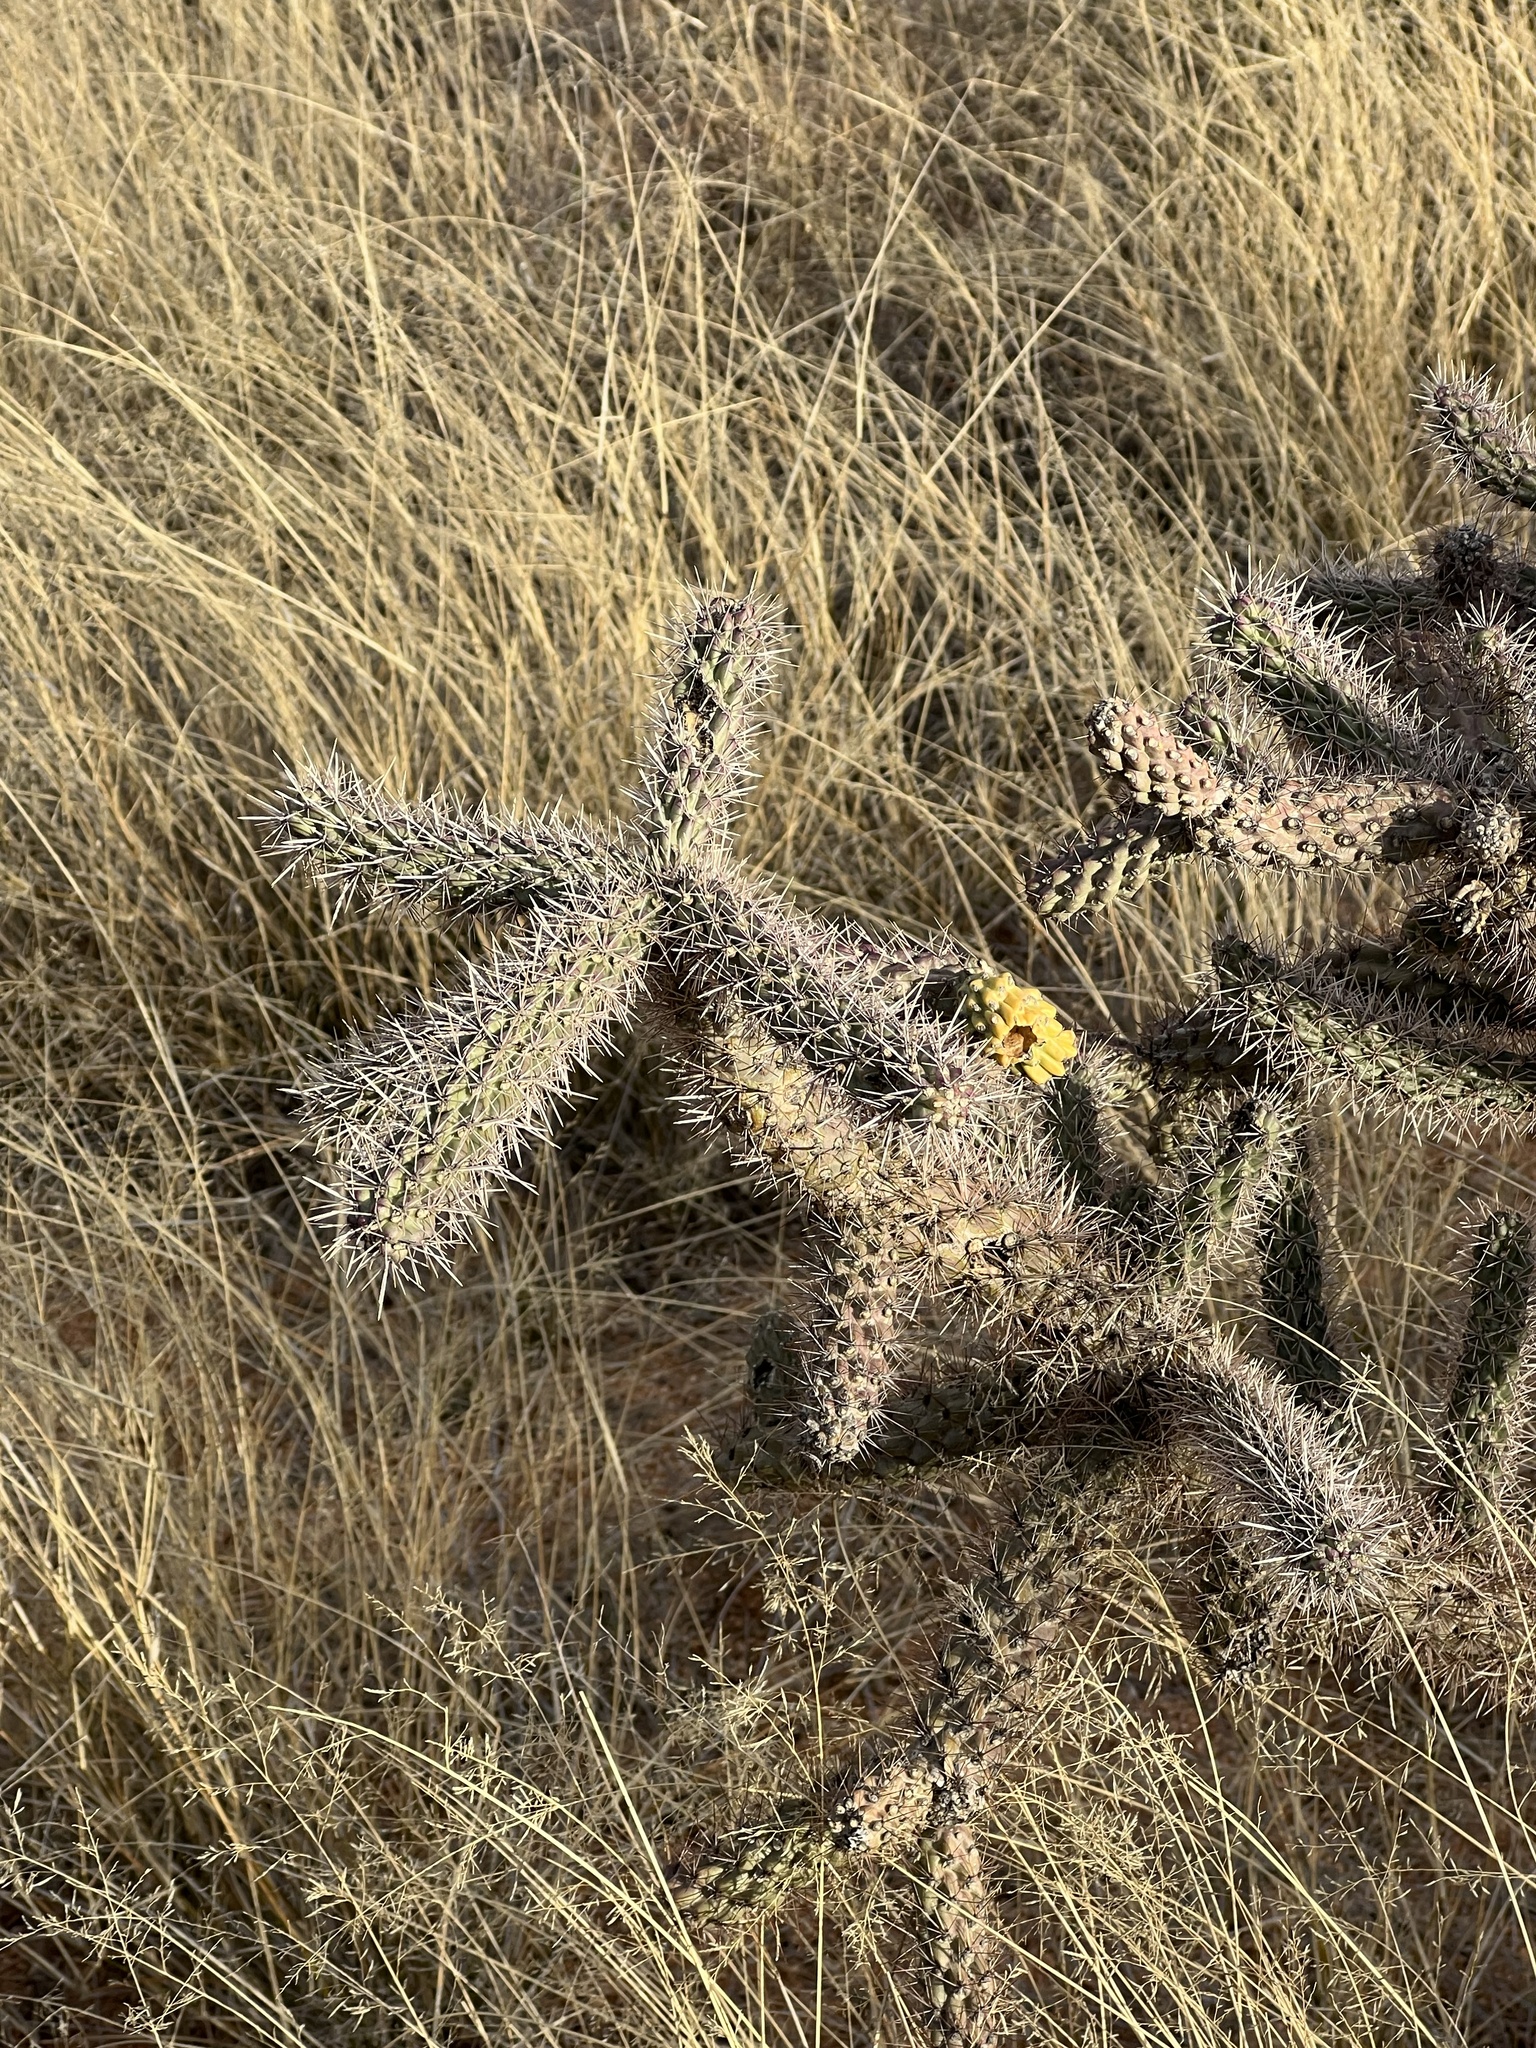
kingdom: Plantae
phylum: Tracheophyta
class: Magnoliopsida
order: Caryophyllales
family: Cactaceae
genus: Cylindropuntia
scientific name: Cylindropuntia imbricata
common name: Candelabrum cactus
